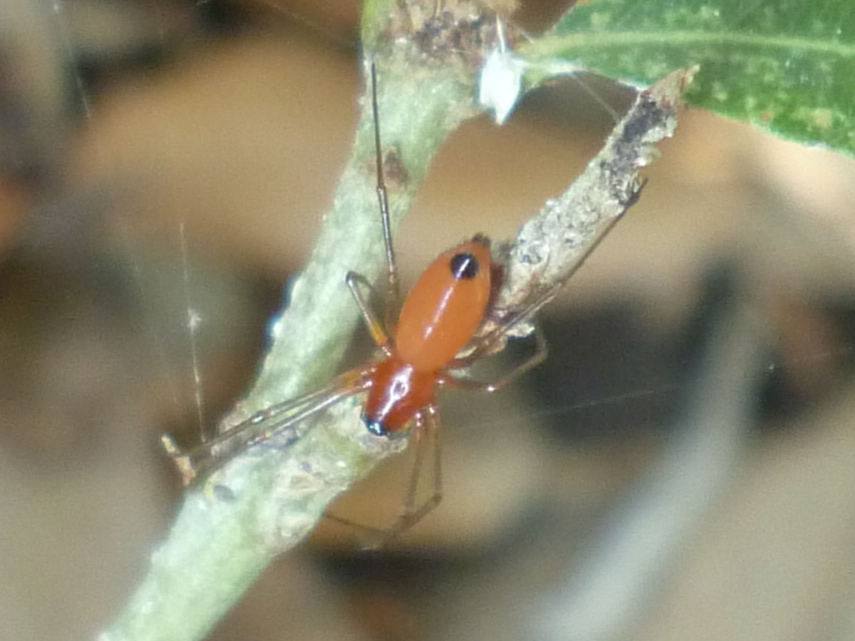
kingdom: Animalia
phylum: Arthropoda
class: Arachnida
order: Araneae
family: Linyphiidae
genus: Florinda
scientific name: Florinda coccinea
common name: Black-tailed red sheetweaver
